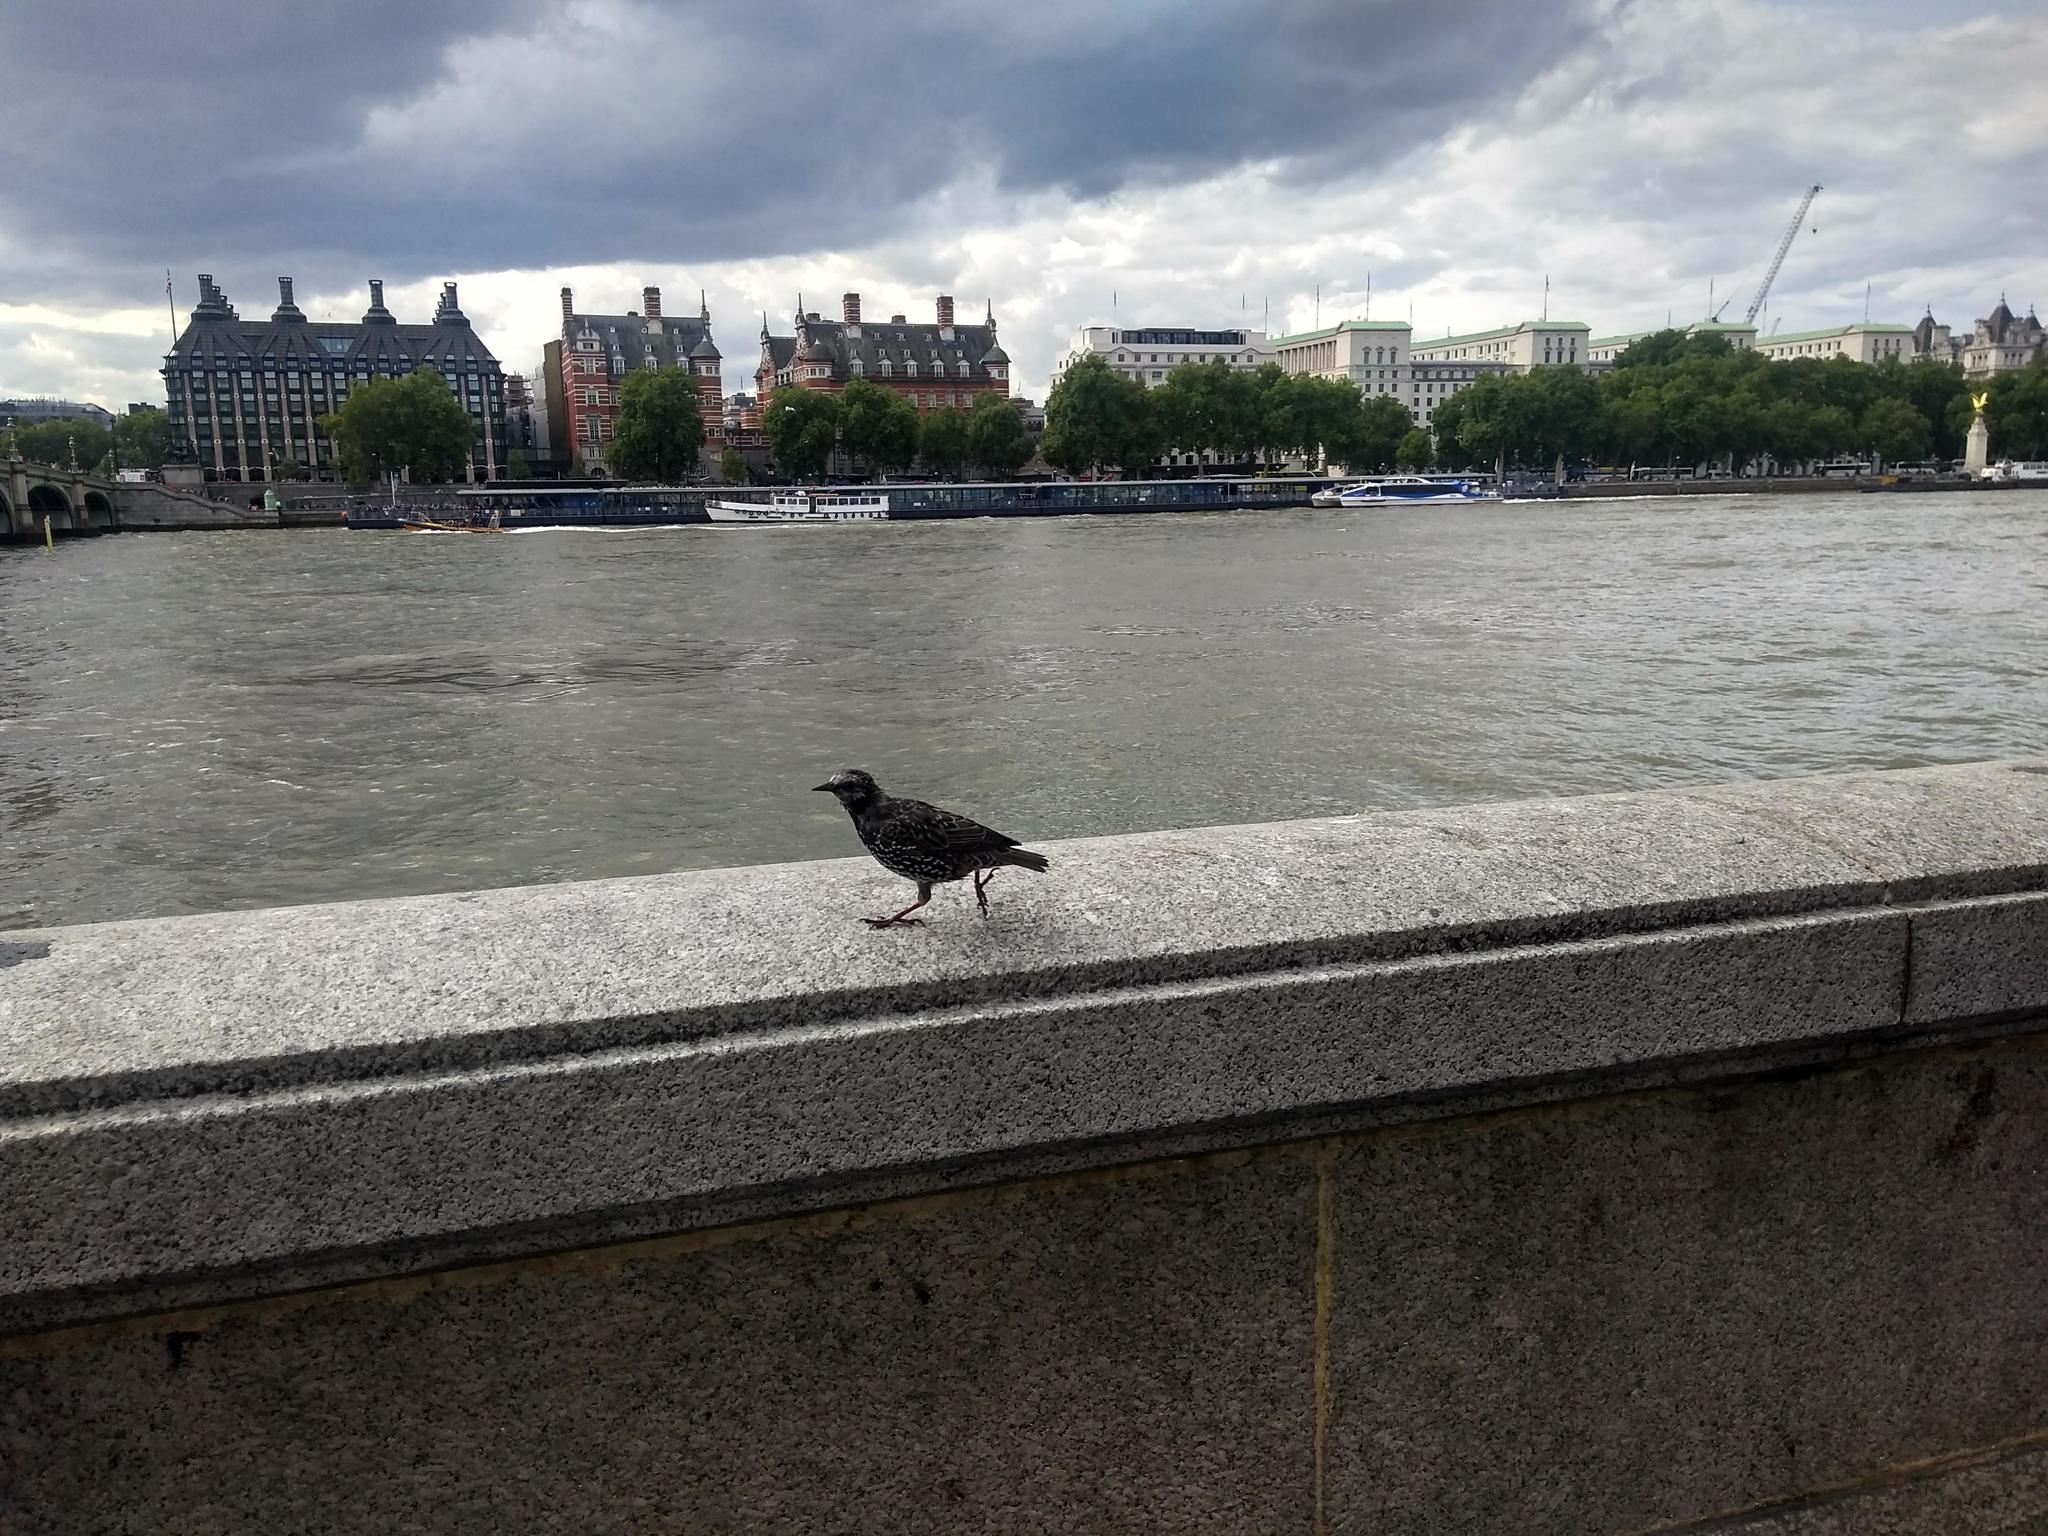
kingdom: Animalia
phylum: Chordata
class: Aves
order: Passeriformes
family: Sturnidae
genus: Sturnus
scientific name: Sturnus vulgaris
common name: Common starling
